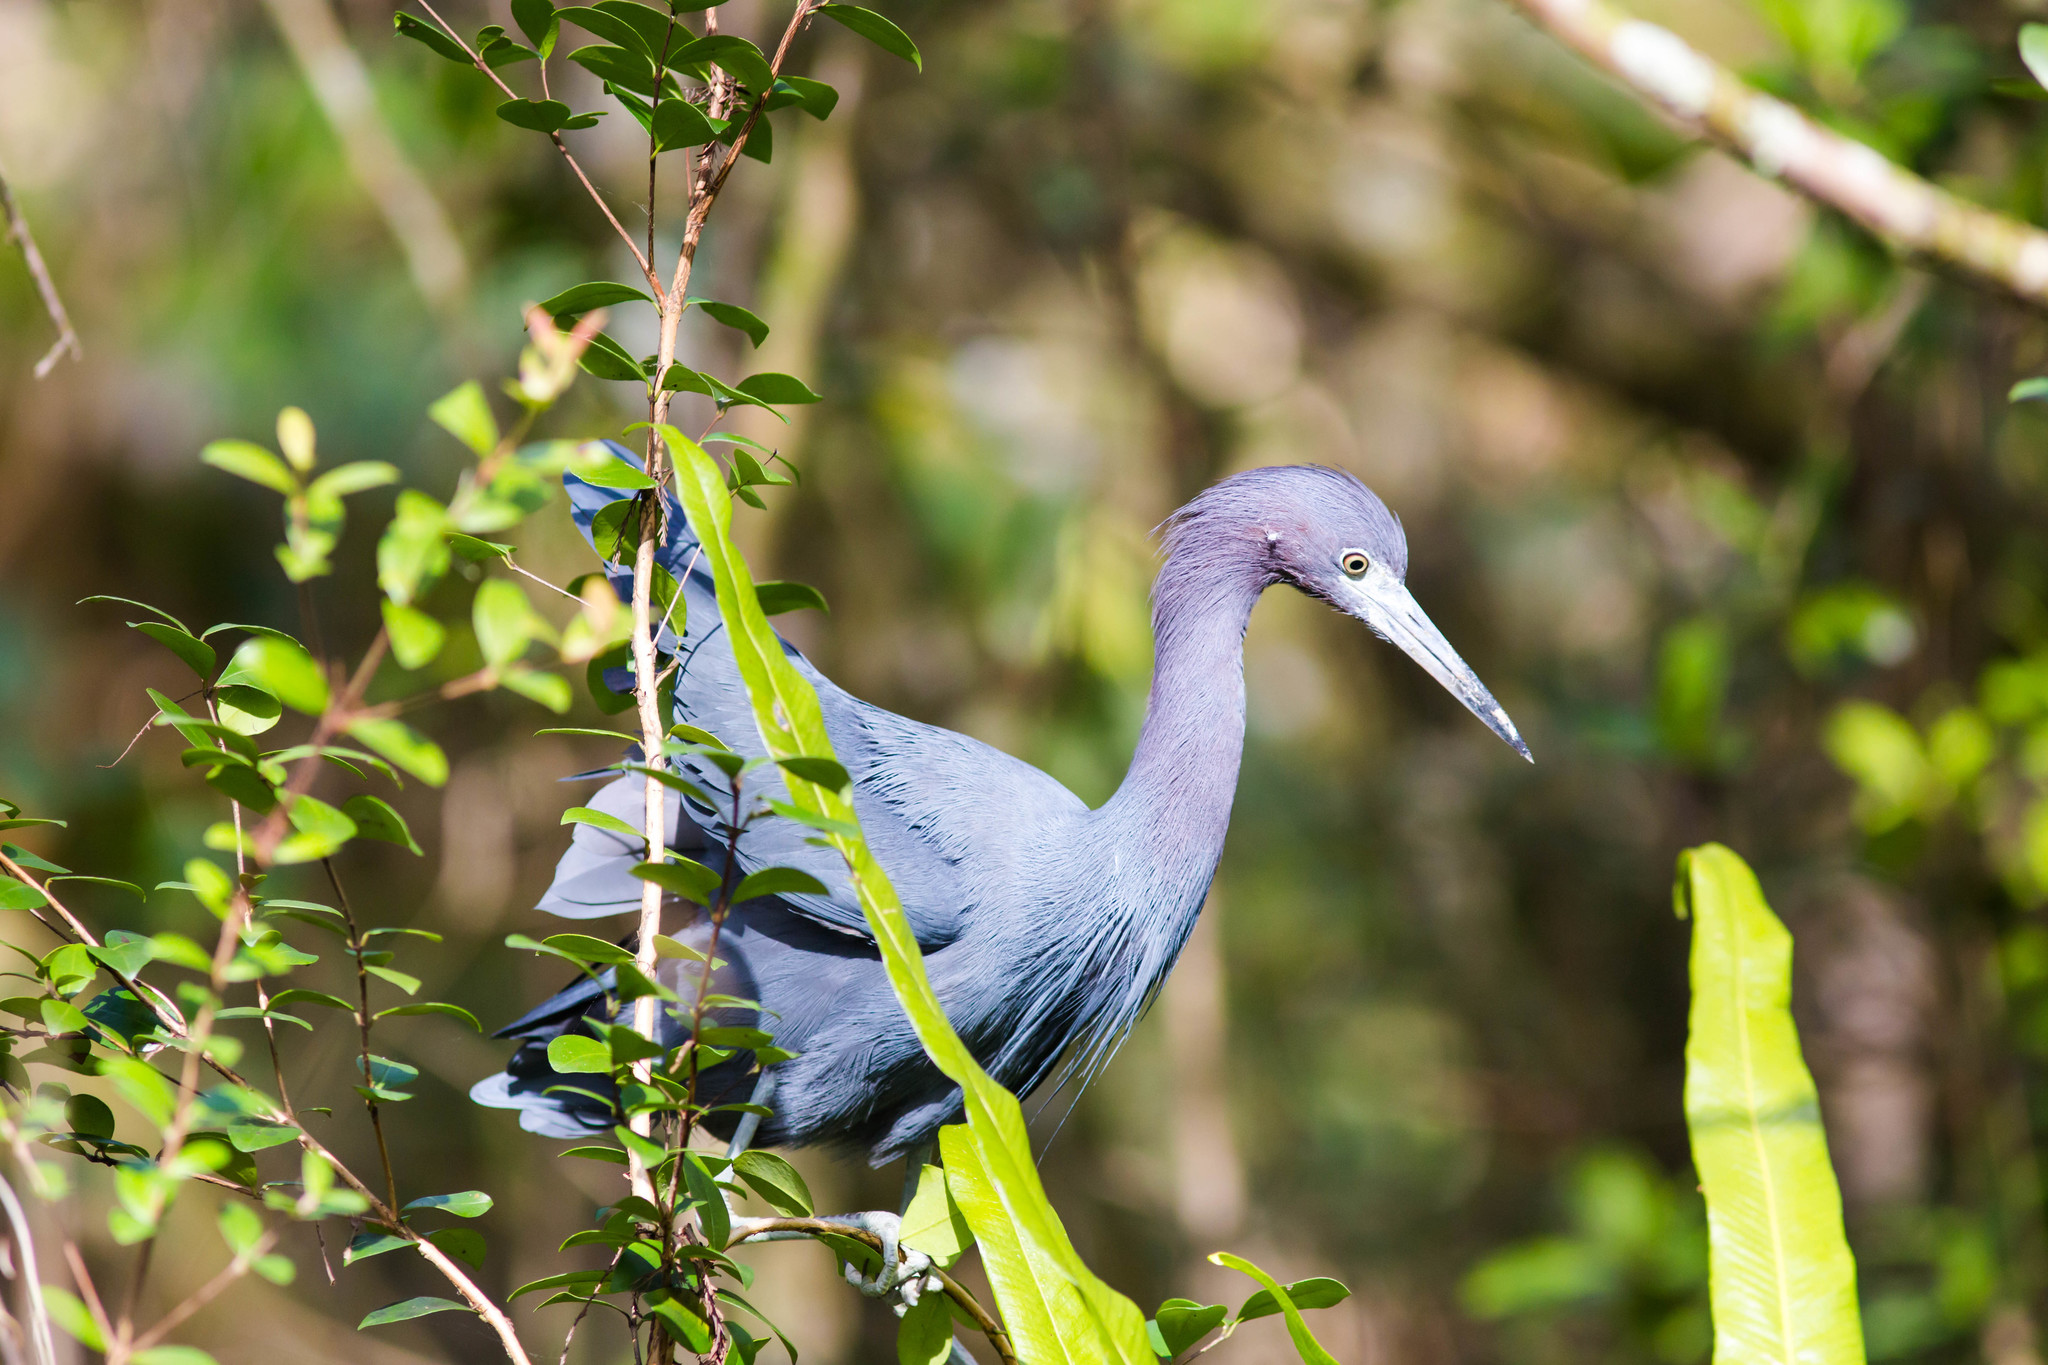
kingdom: Animalia
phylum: Chordata
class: Aves
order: Pelecaniformes
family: Ardeidae
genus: Egretta
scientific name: Egretta caerulea
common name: Little blue heron
